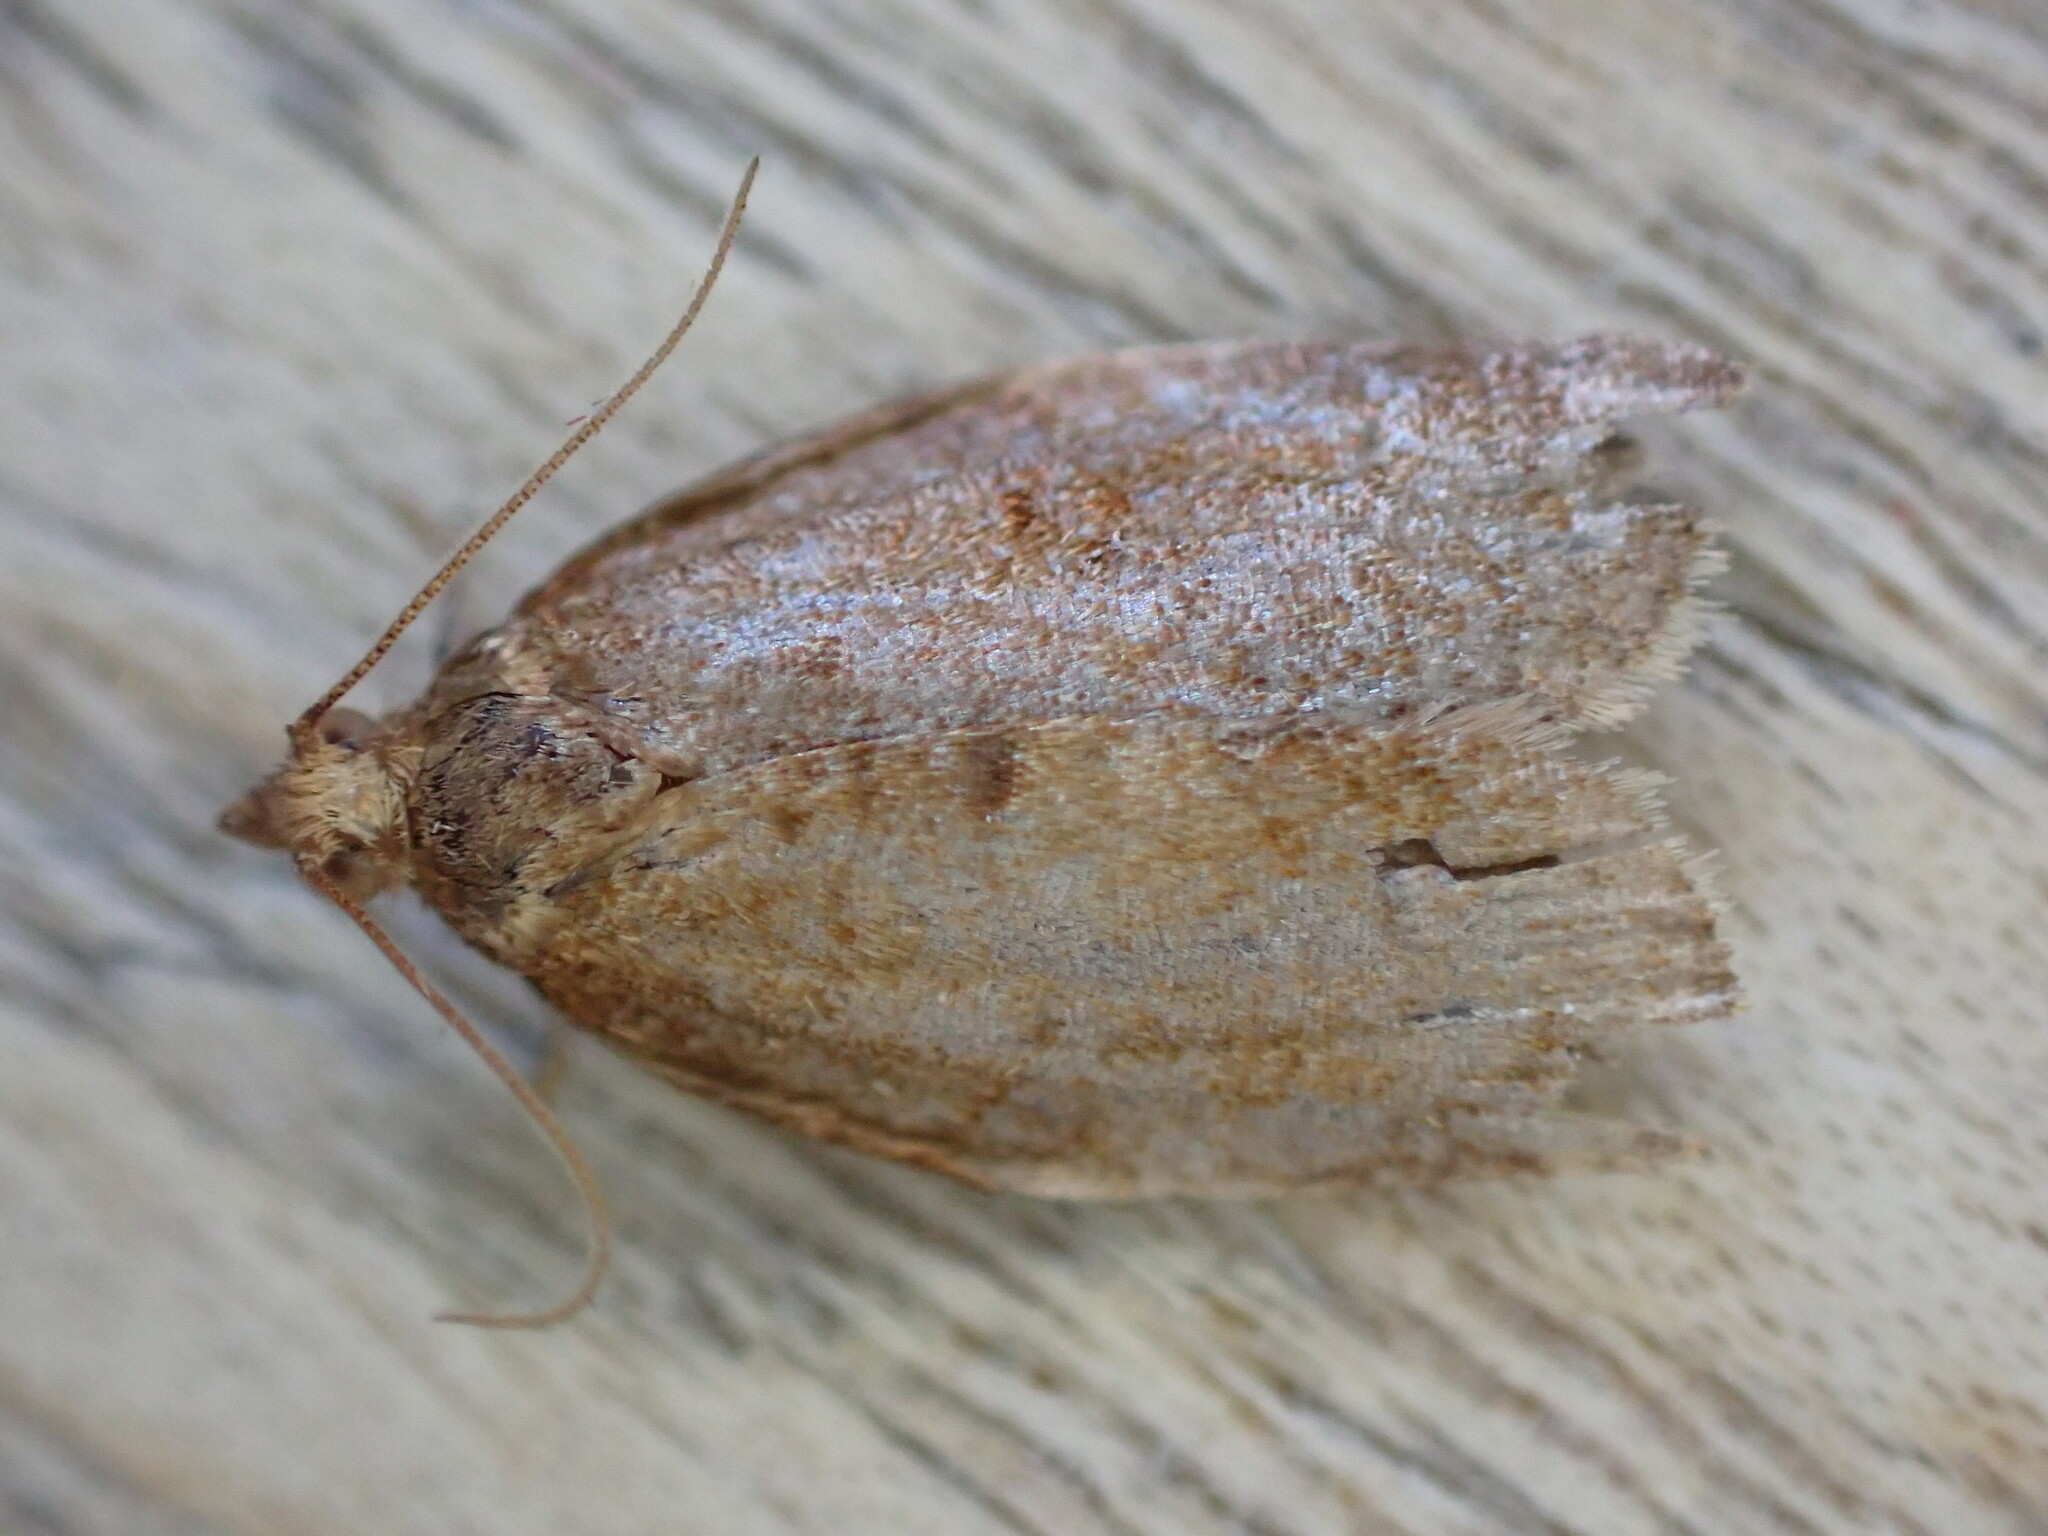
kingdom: Animalia
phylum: Arthropoda
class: Insecta
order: Lepidoptera
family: Tortricidae
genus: Clepsis
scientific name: Clepsis consimilana
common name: Privet tortrix
